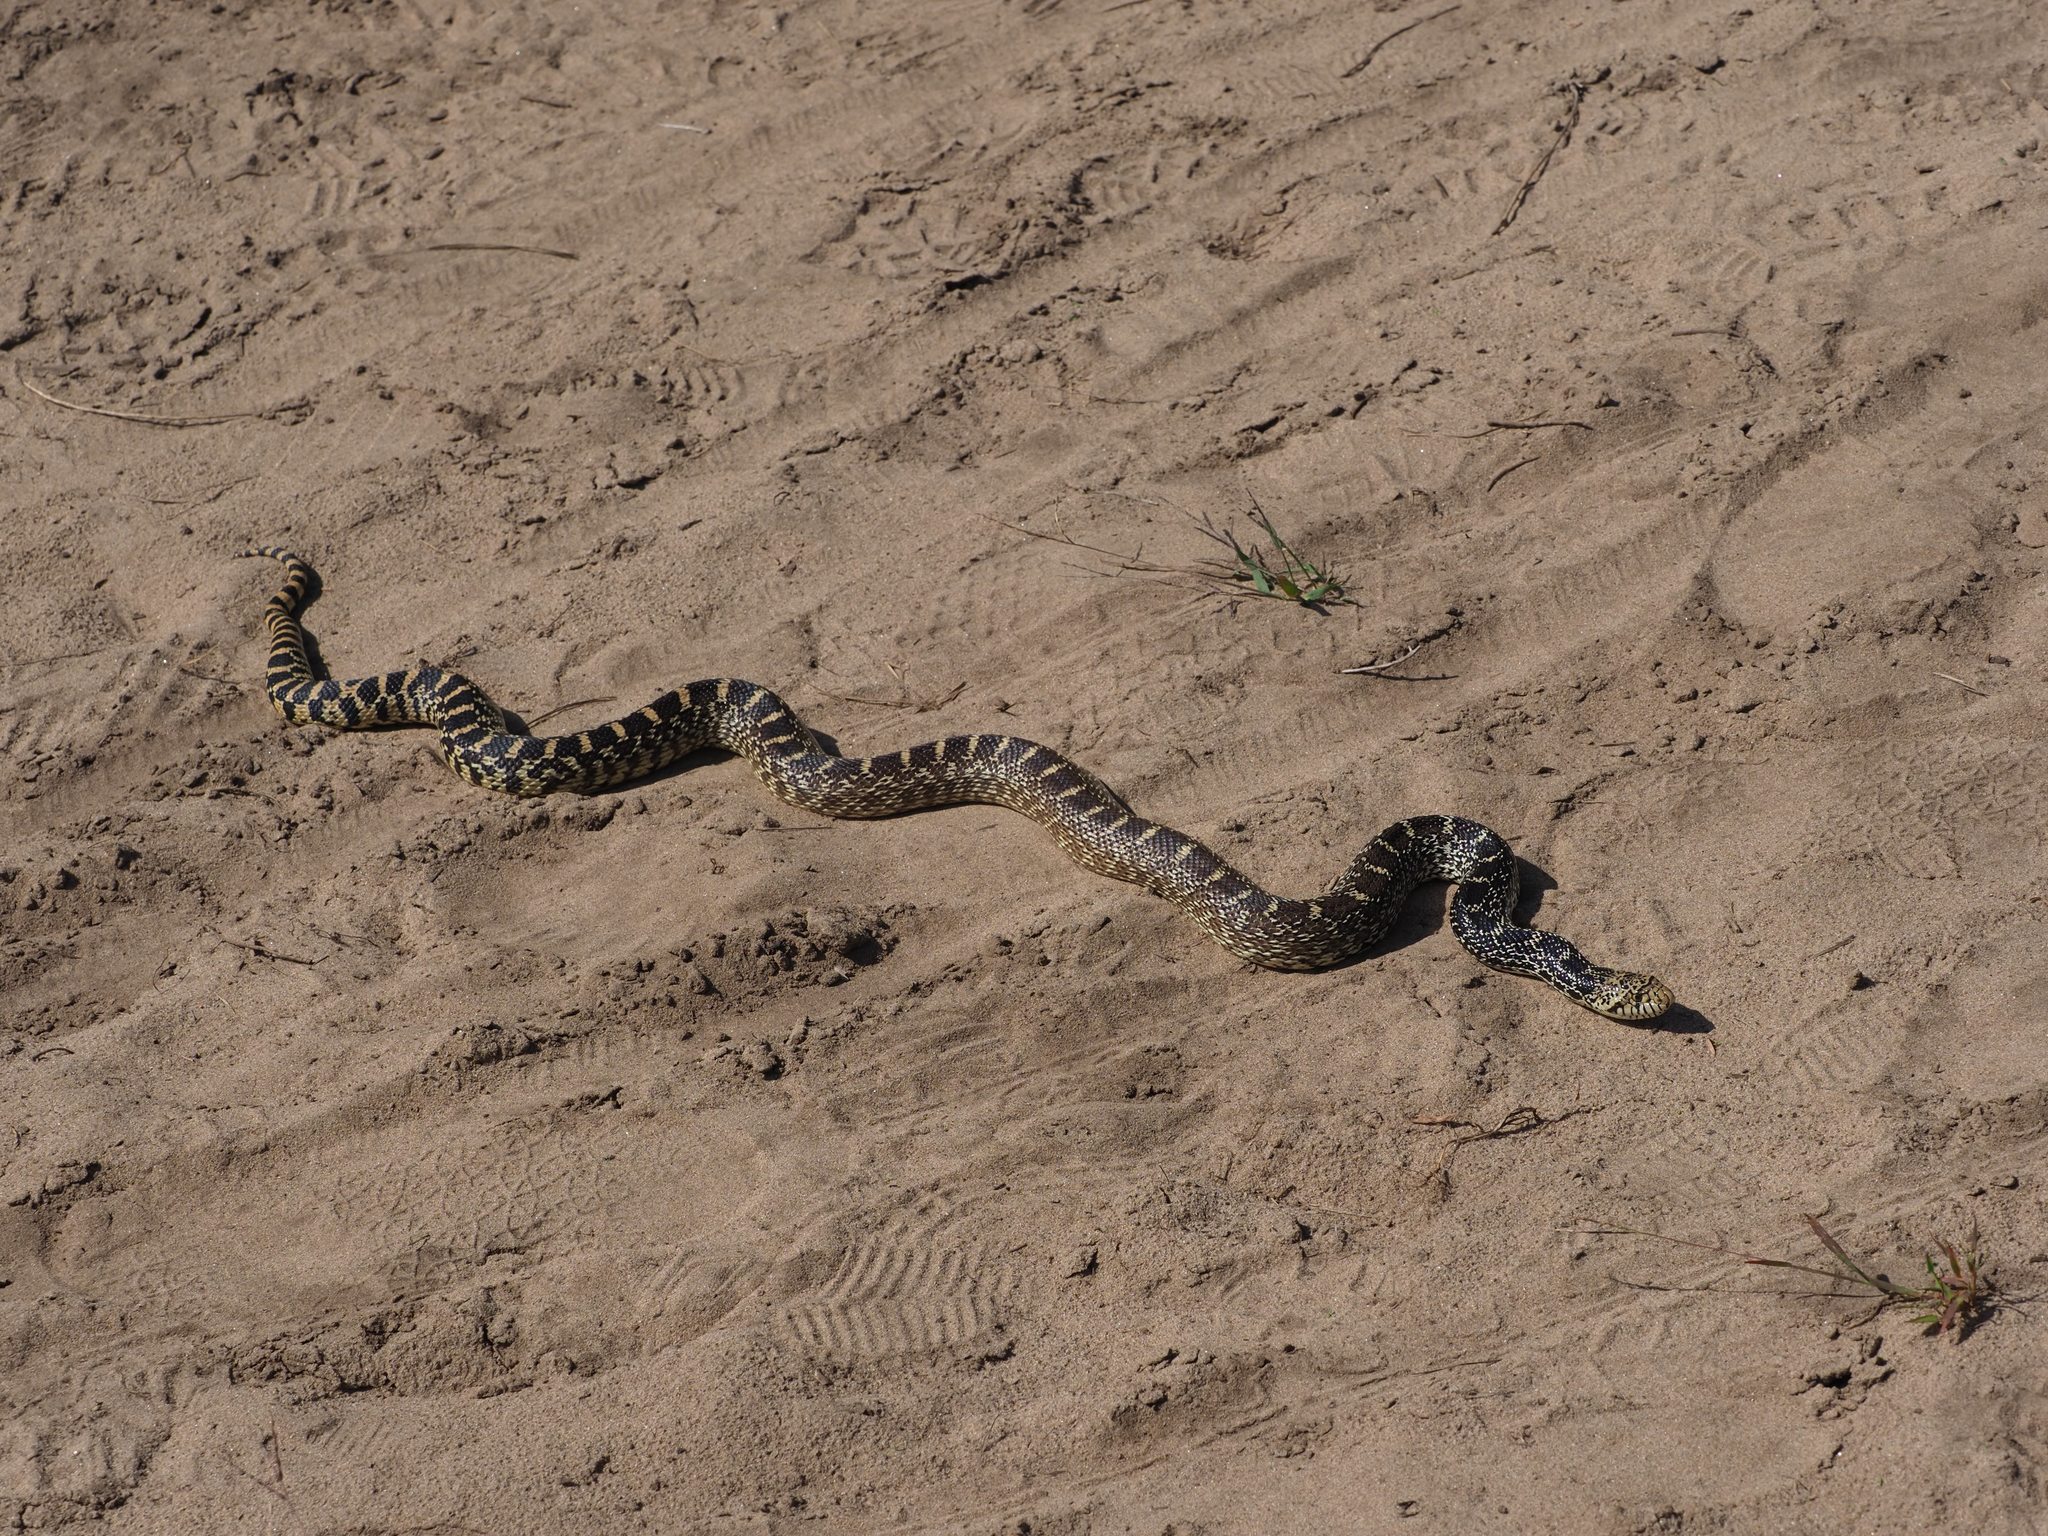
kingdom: Animalia
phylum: Chordata
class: Squamata
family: Colubridae
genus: Pituophis
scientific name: Pituophis catenifer
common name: Gopher snake
